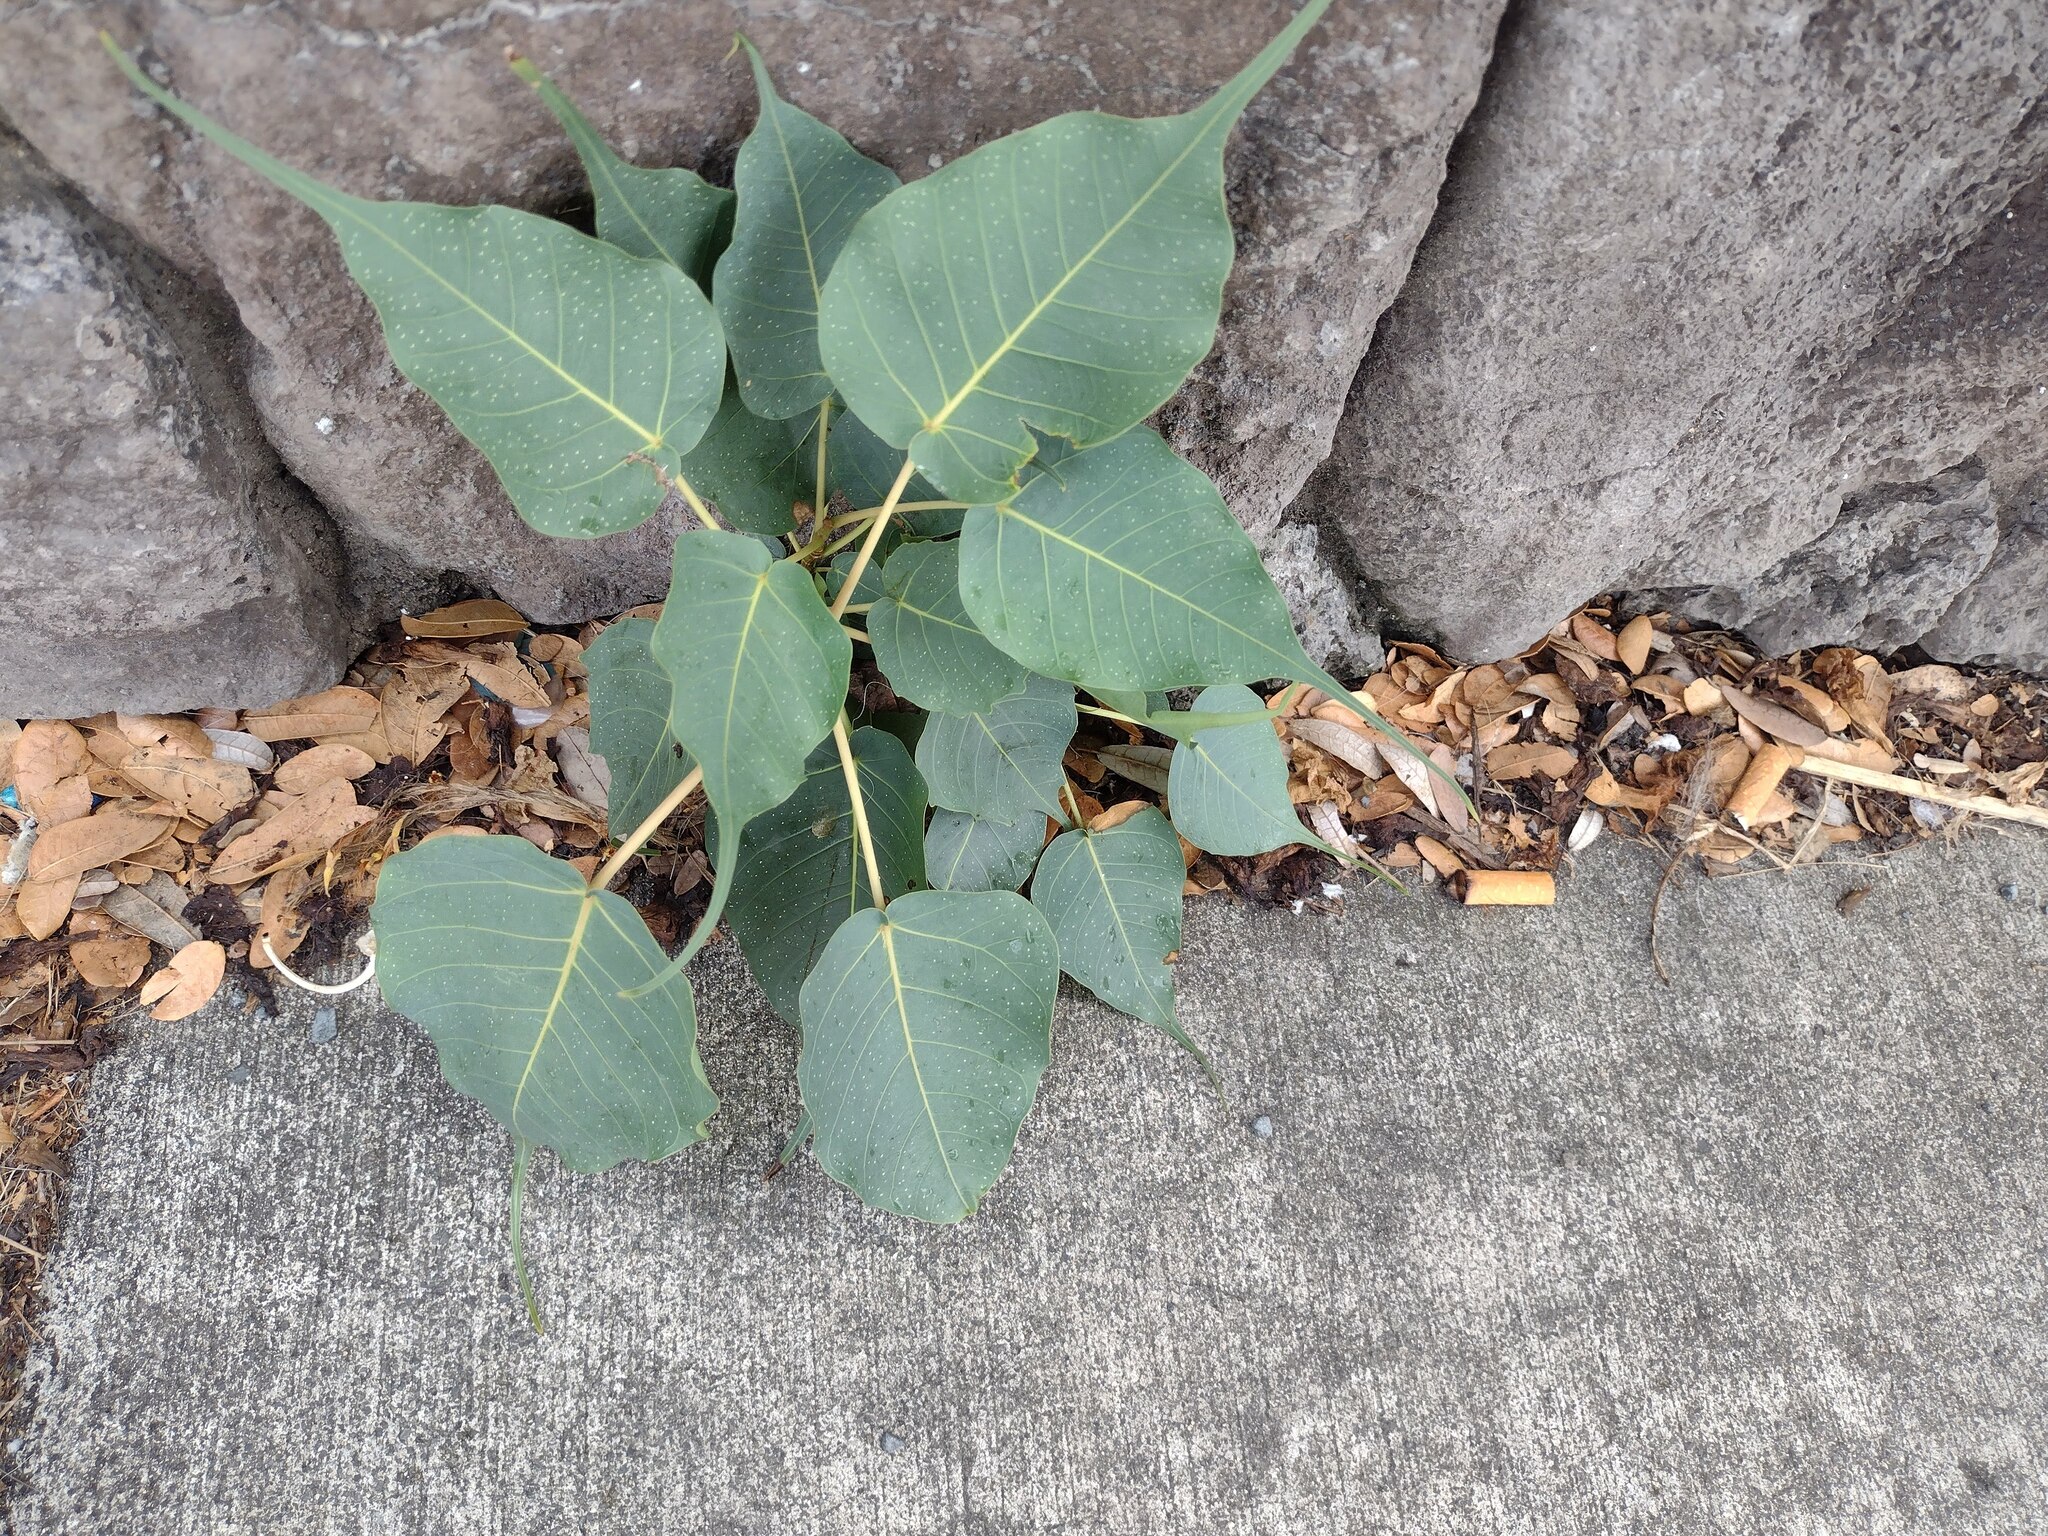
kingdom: Plantae
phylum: Tracheophyta
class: Magnoliopsida
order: Rosales
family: Moraceae
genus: Ficus
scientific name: Ficus religiosa
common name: Bodhi tree
